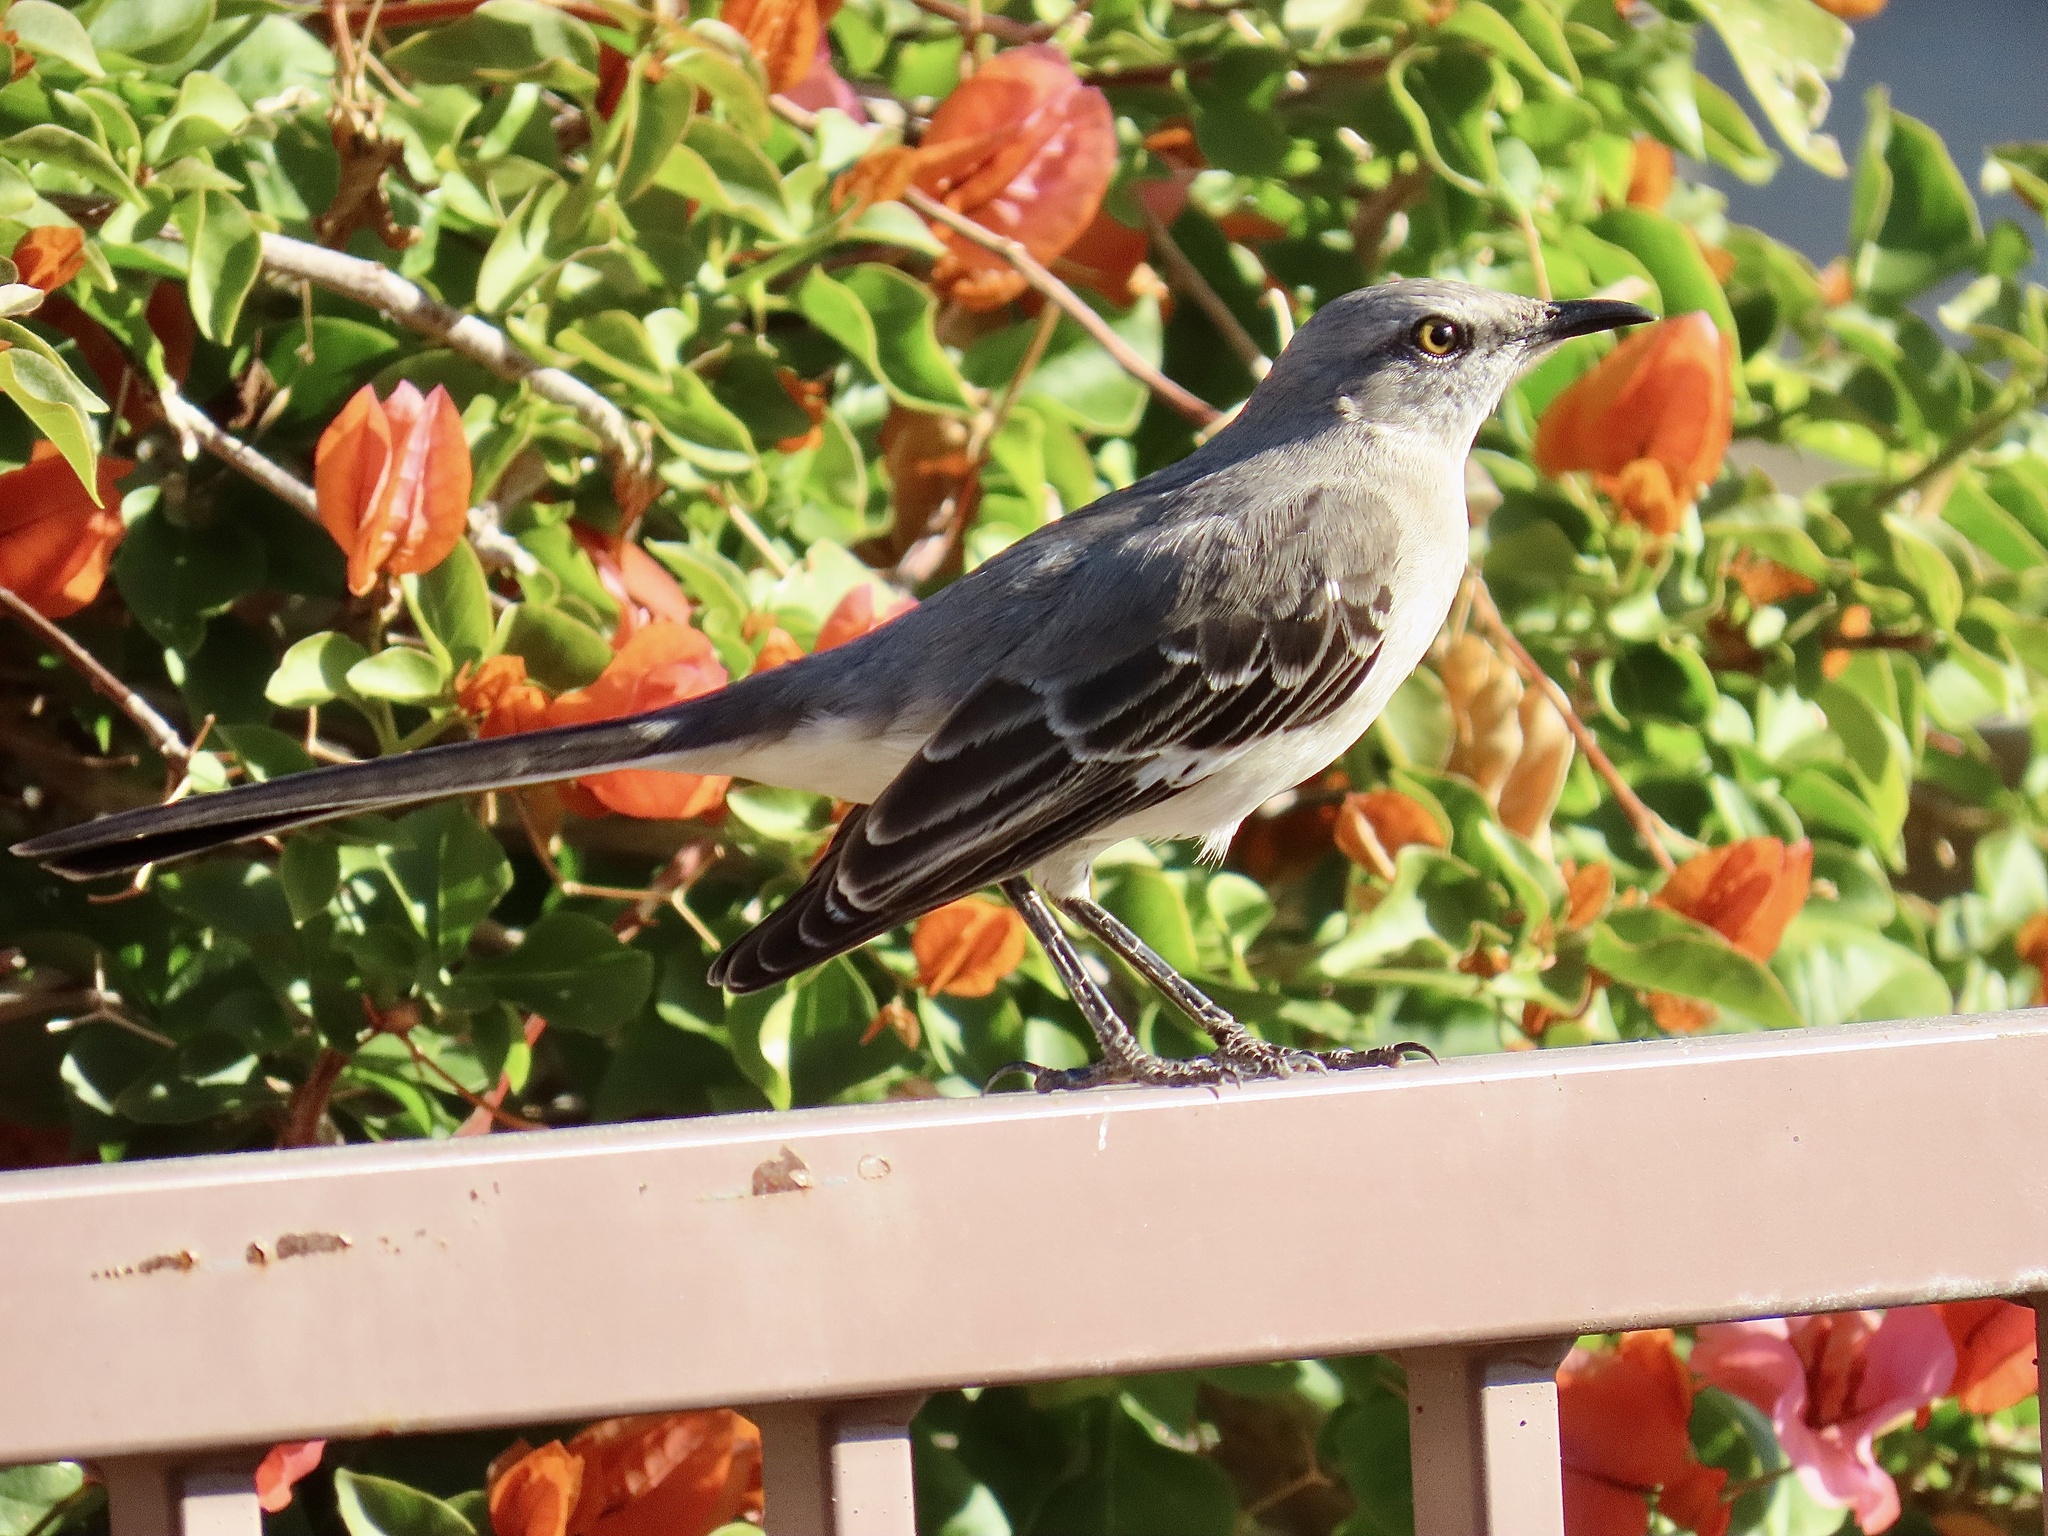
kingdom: Animalia
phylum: Chordata
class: Aves
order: Passeriformes
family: Mimidae
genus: Mimus
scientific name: Mimus polyglottos
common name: Northern mockingbird
